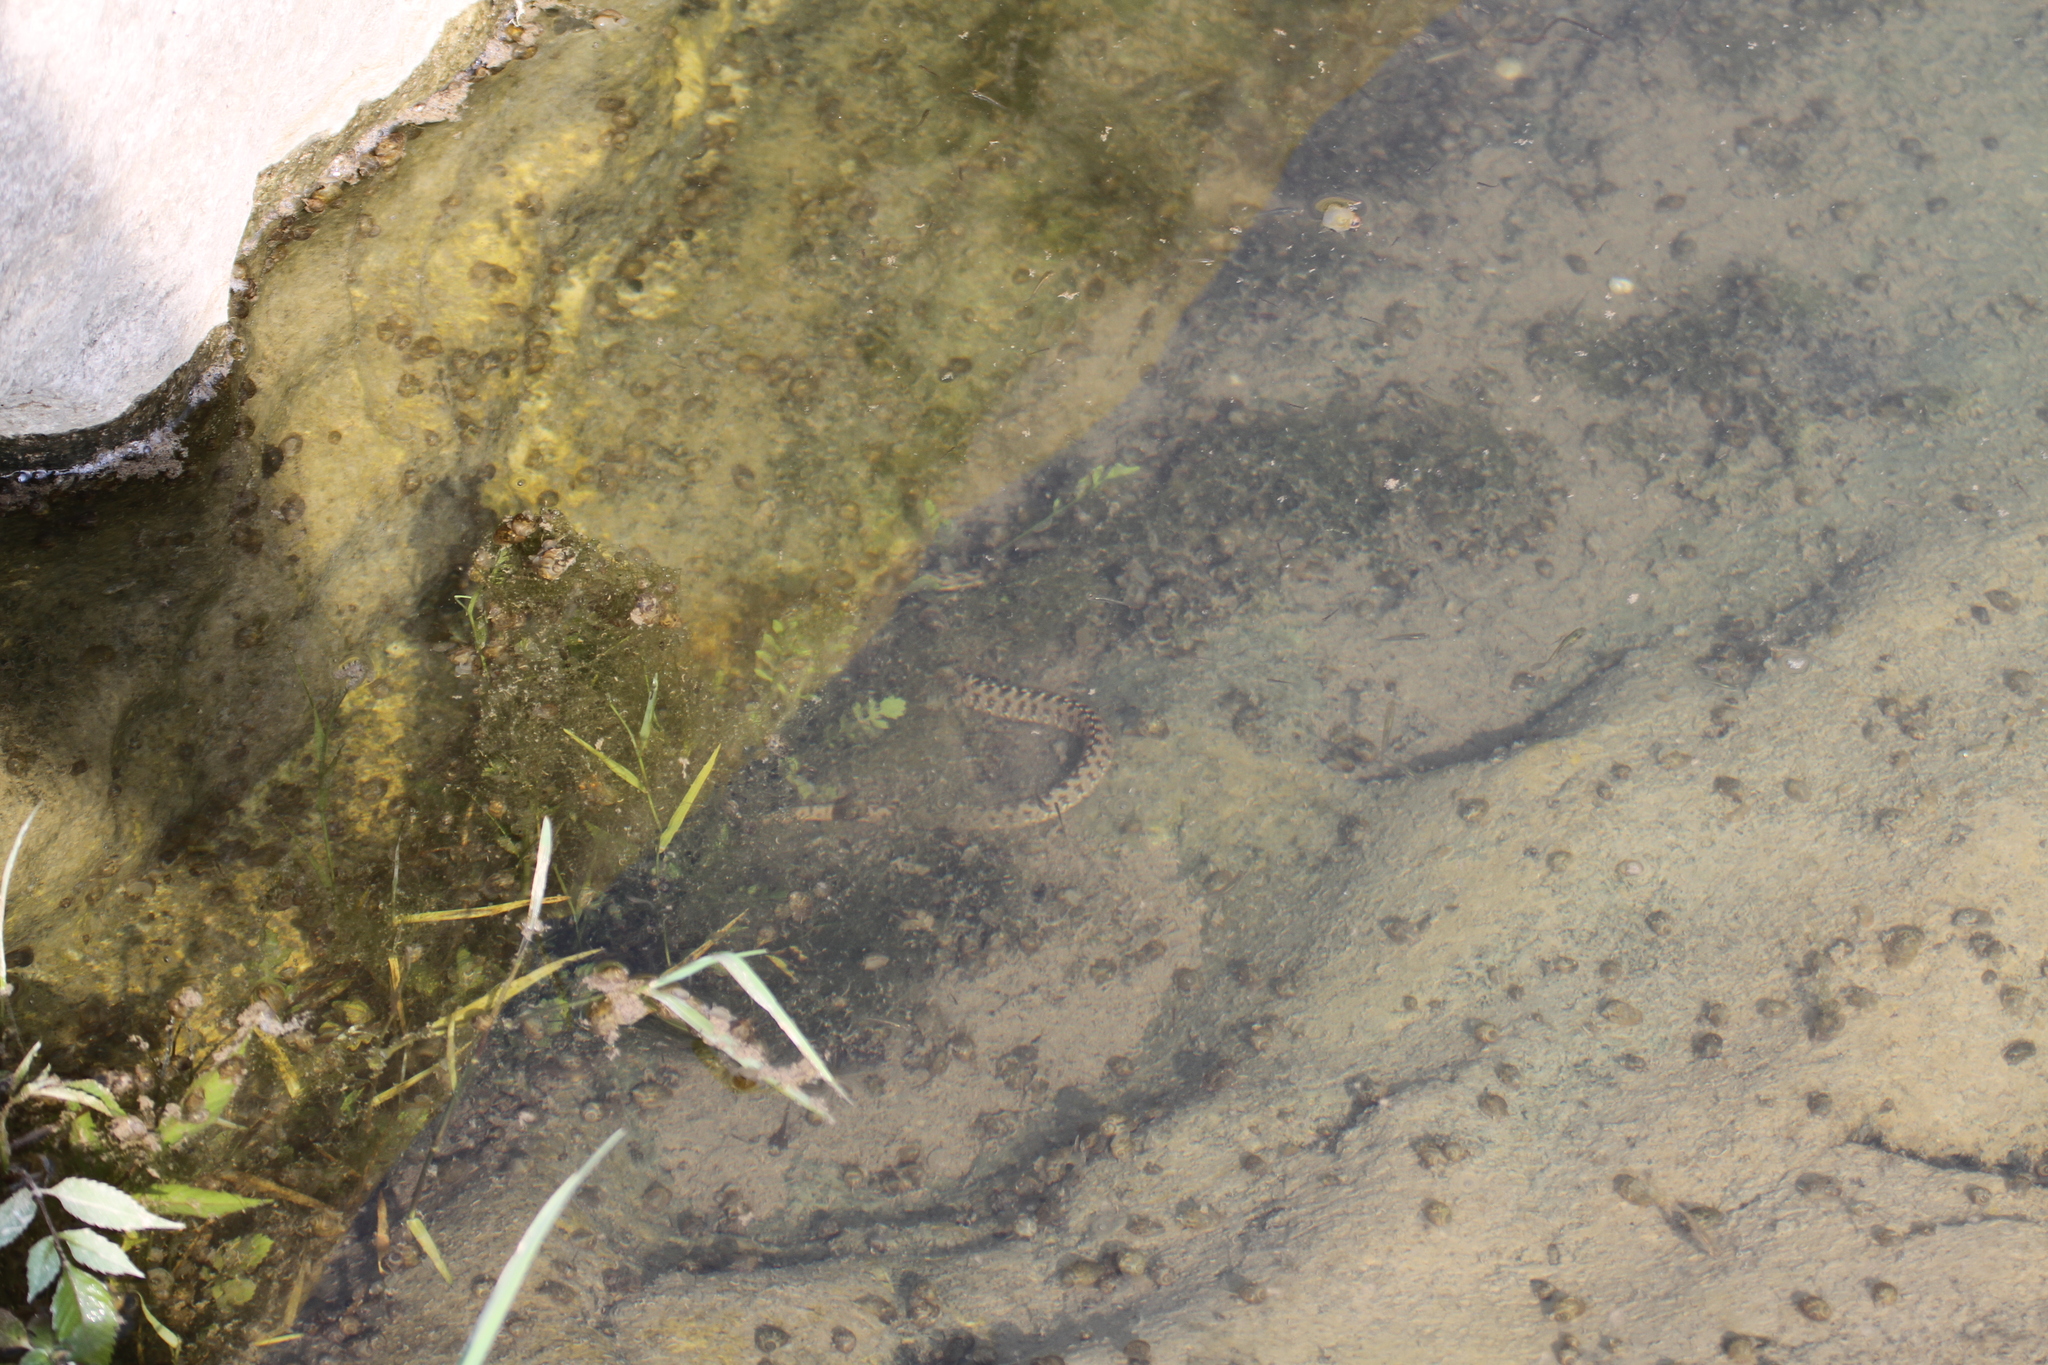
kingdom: Animalia
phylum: Chordata
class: Squamata
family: Colubridae
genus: Natrix
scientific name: Natrix maura
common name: Viperine water snake
